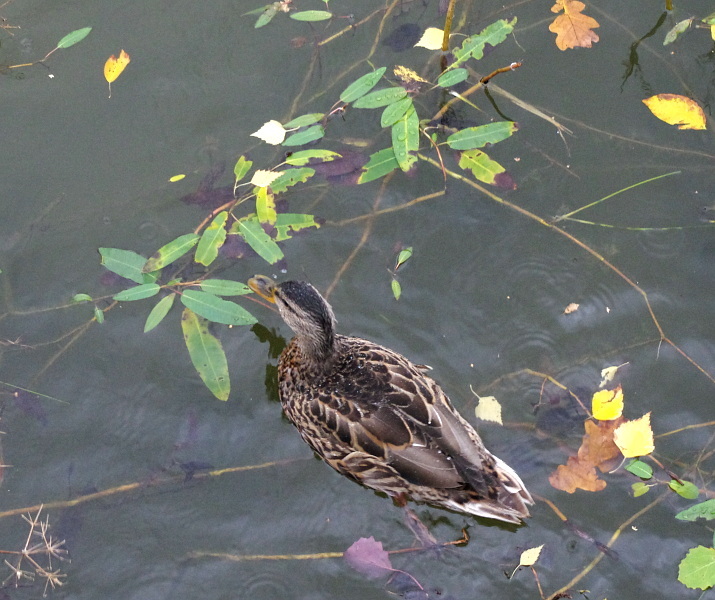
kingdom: Plantae
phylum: Tracheophyta
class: Magnoliopsida
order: Caryophyllales
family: Polygonaceae
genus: Persicaria
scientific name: Persicaria amphibia
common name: Amphibious bistort
